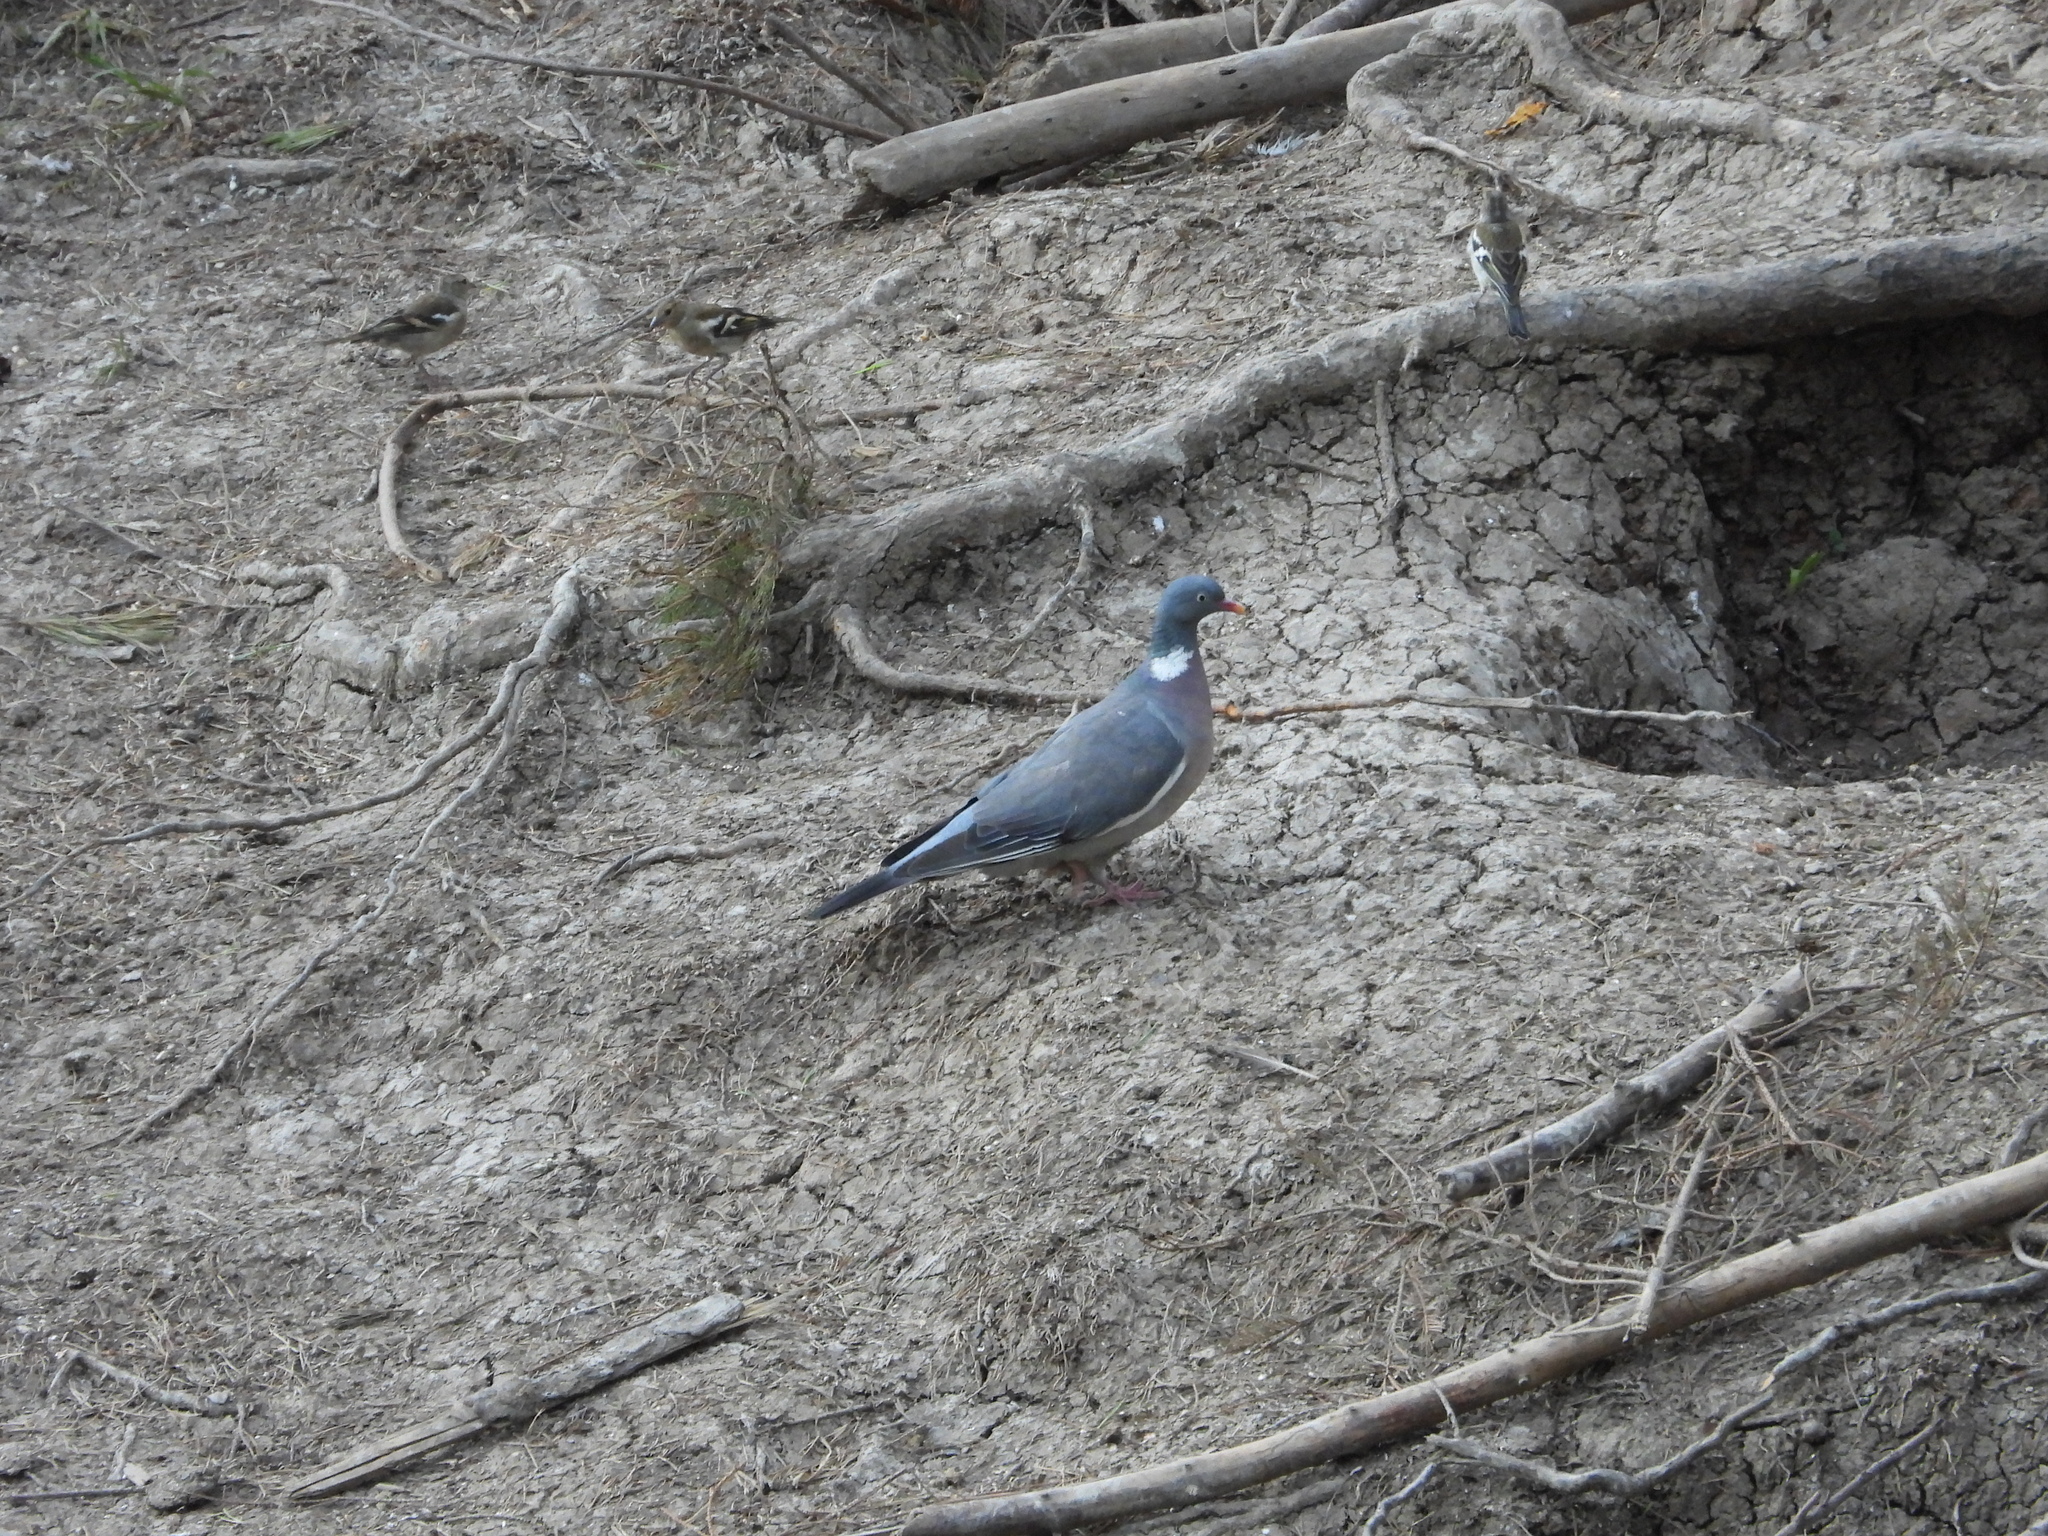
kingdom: Animalia
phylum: Chordata
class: Aves
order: Columbiformes
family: Columbidae
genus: Columba
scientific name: Columba palumbus
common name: Common wood pigeon
